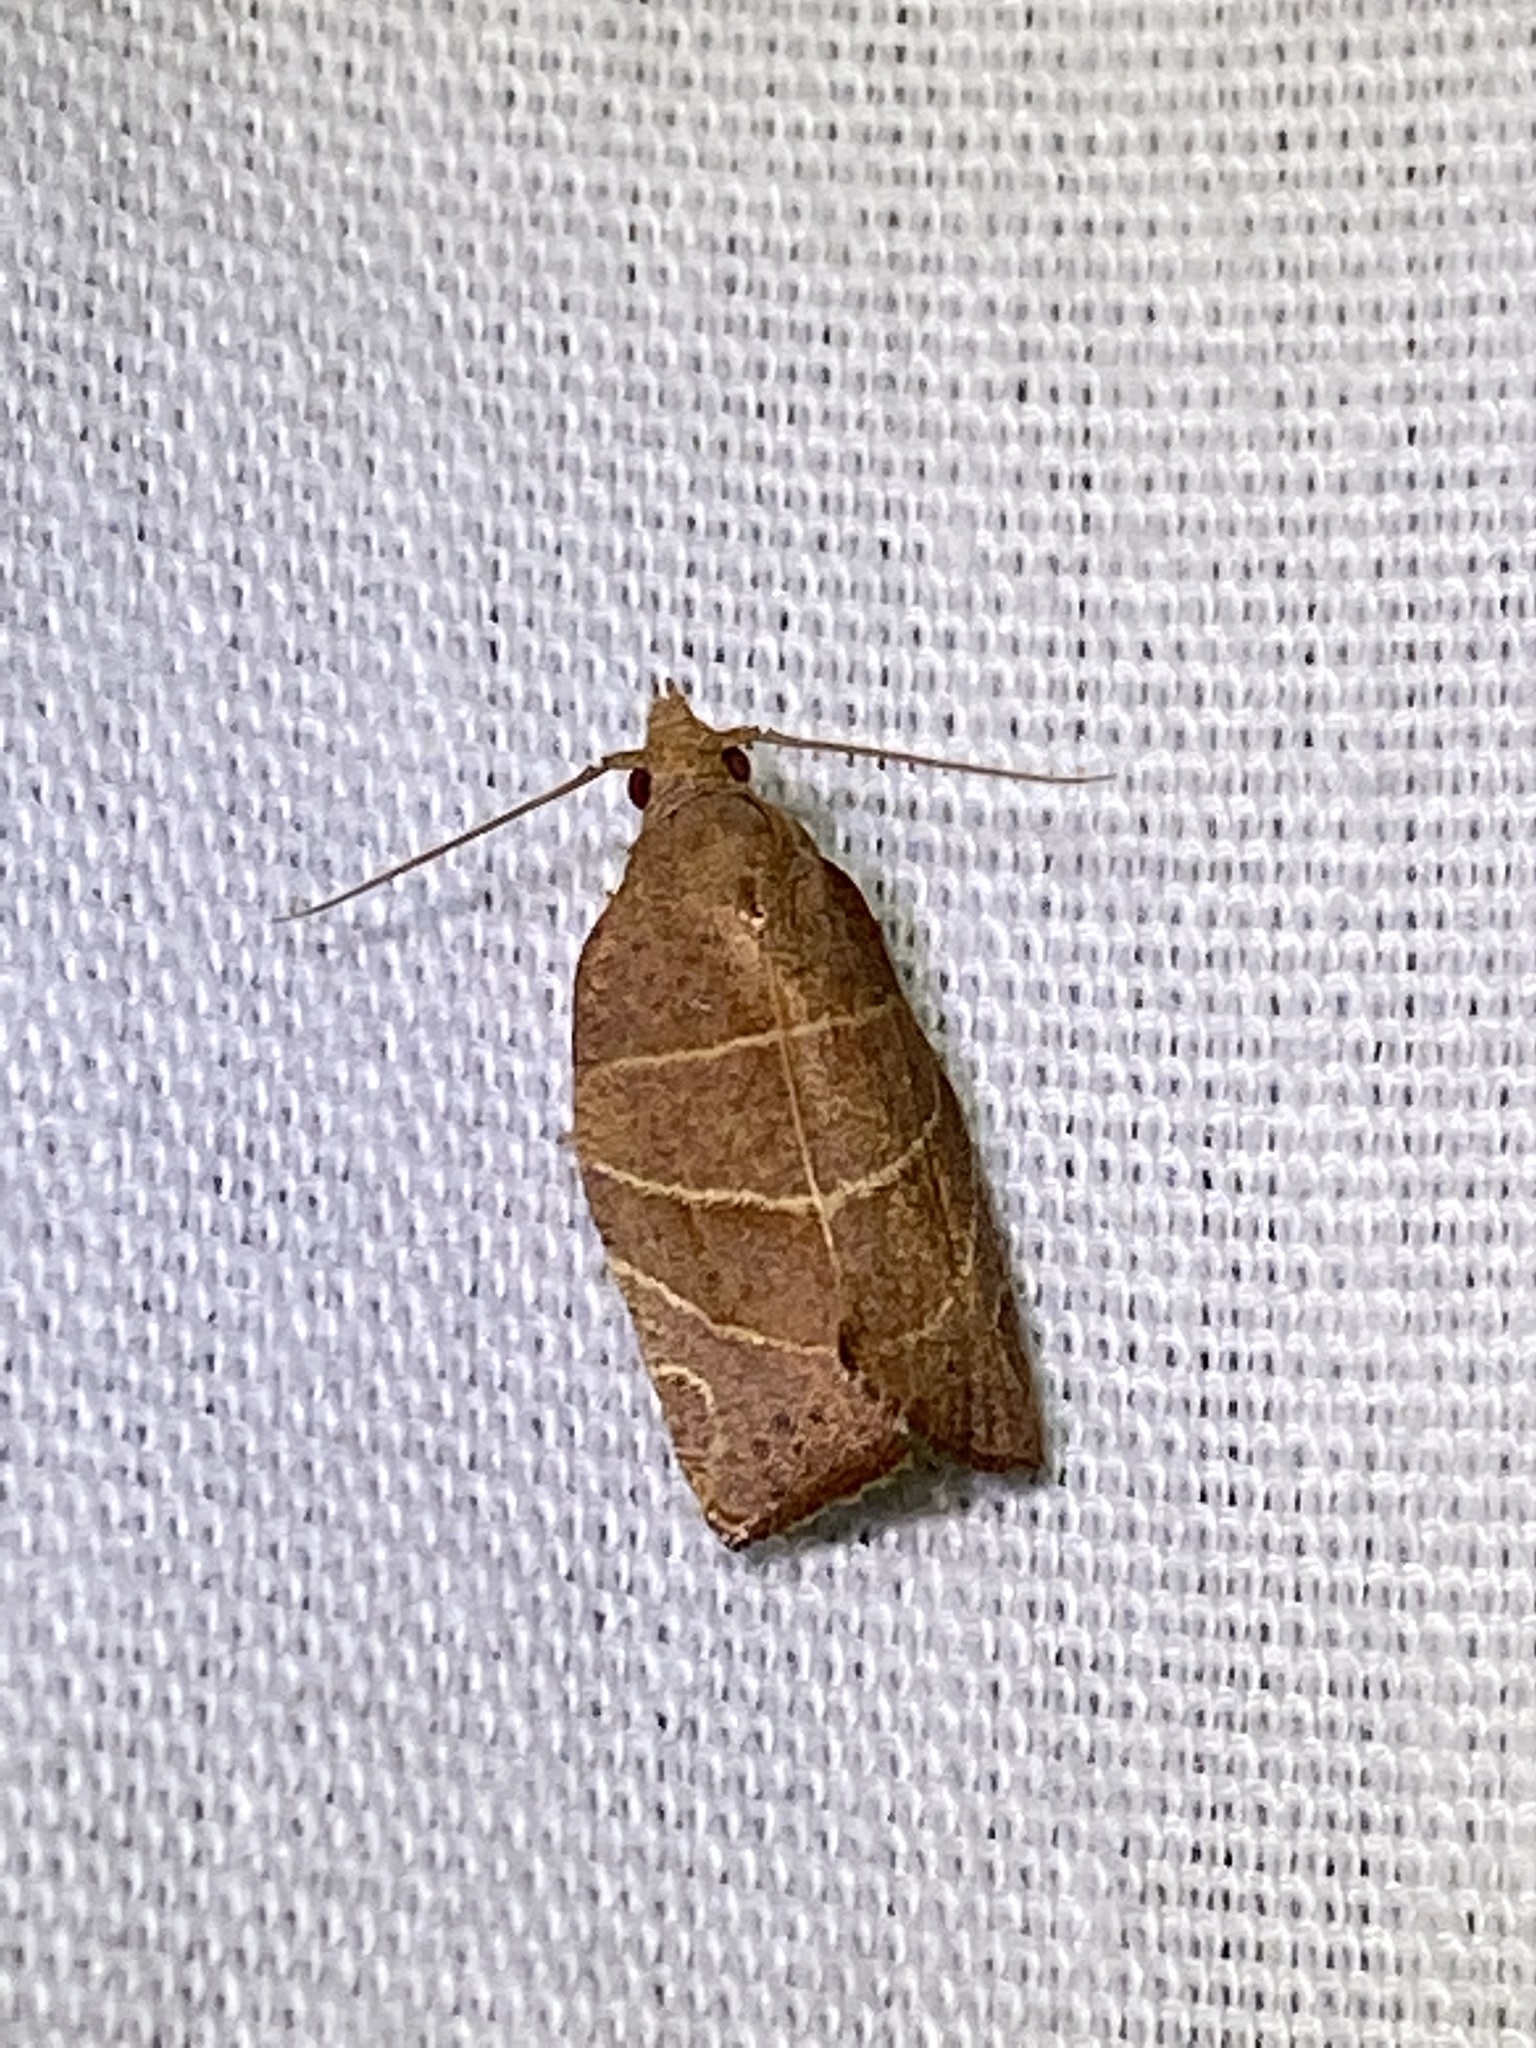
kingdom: Animalia
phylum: Arthropoda
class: Insecta
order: Lepidoptera
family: Tortricidae
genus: Pandemis
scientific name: Pandemis limitata
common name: Three-lined leafroller moth
